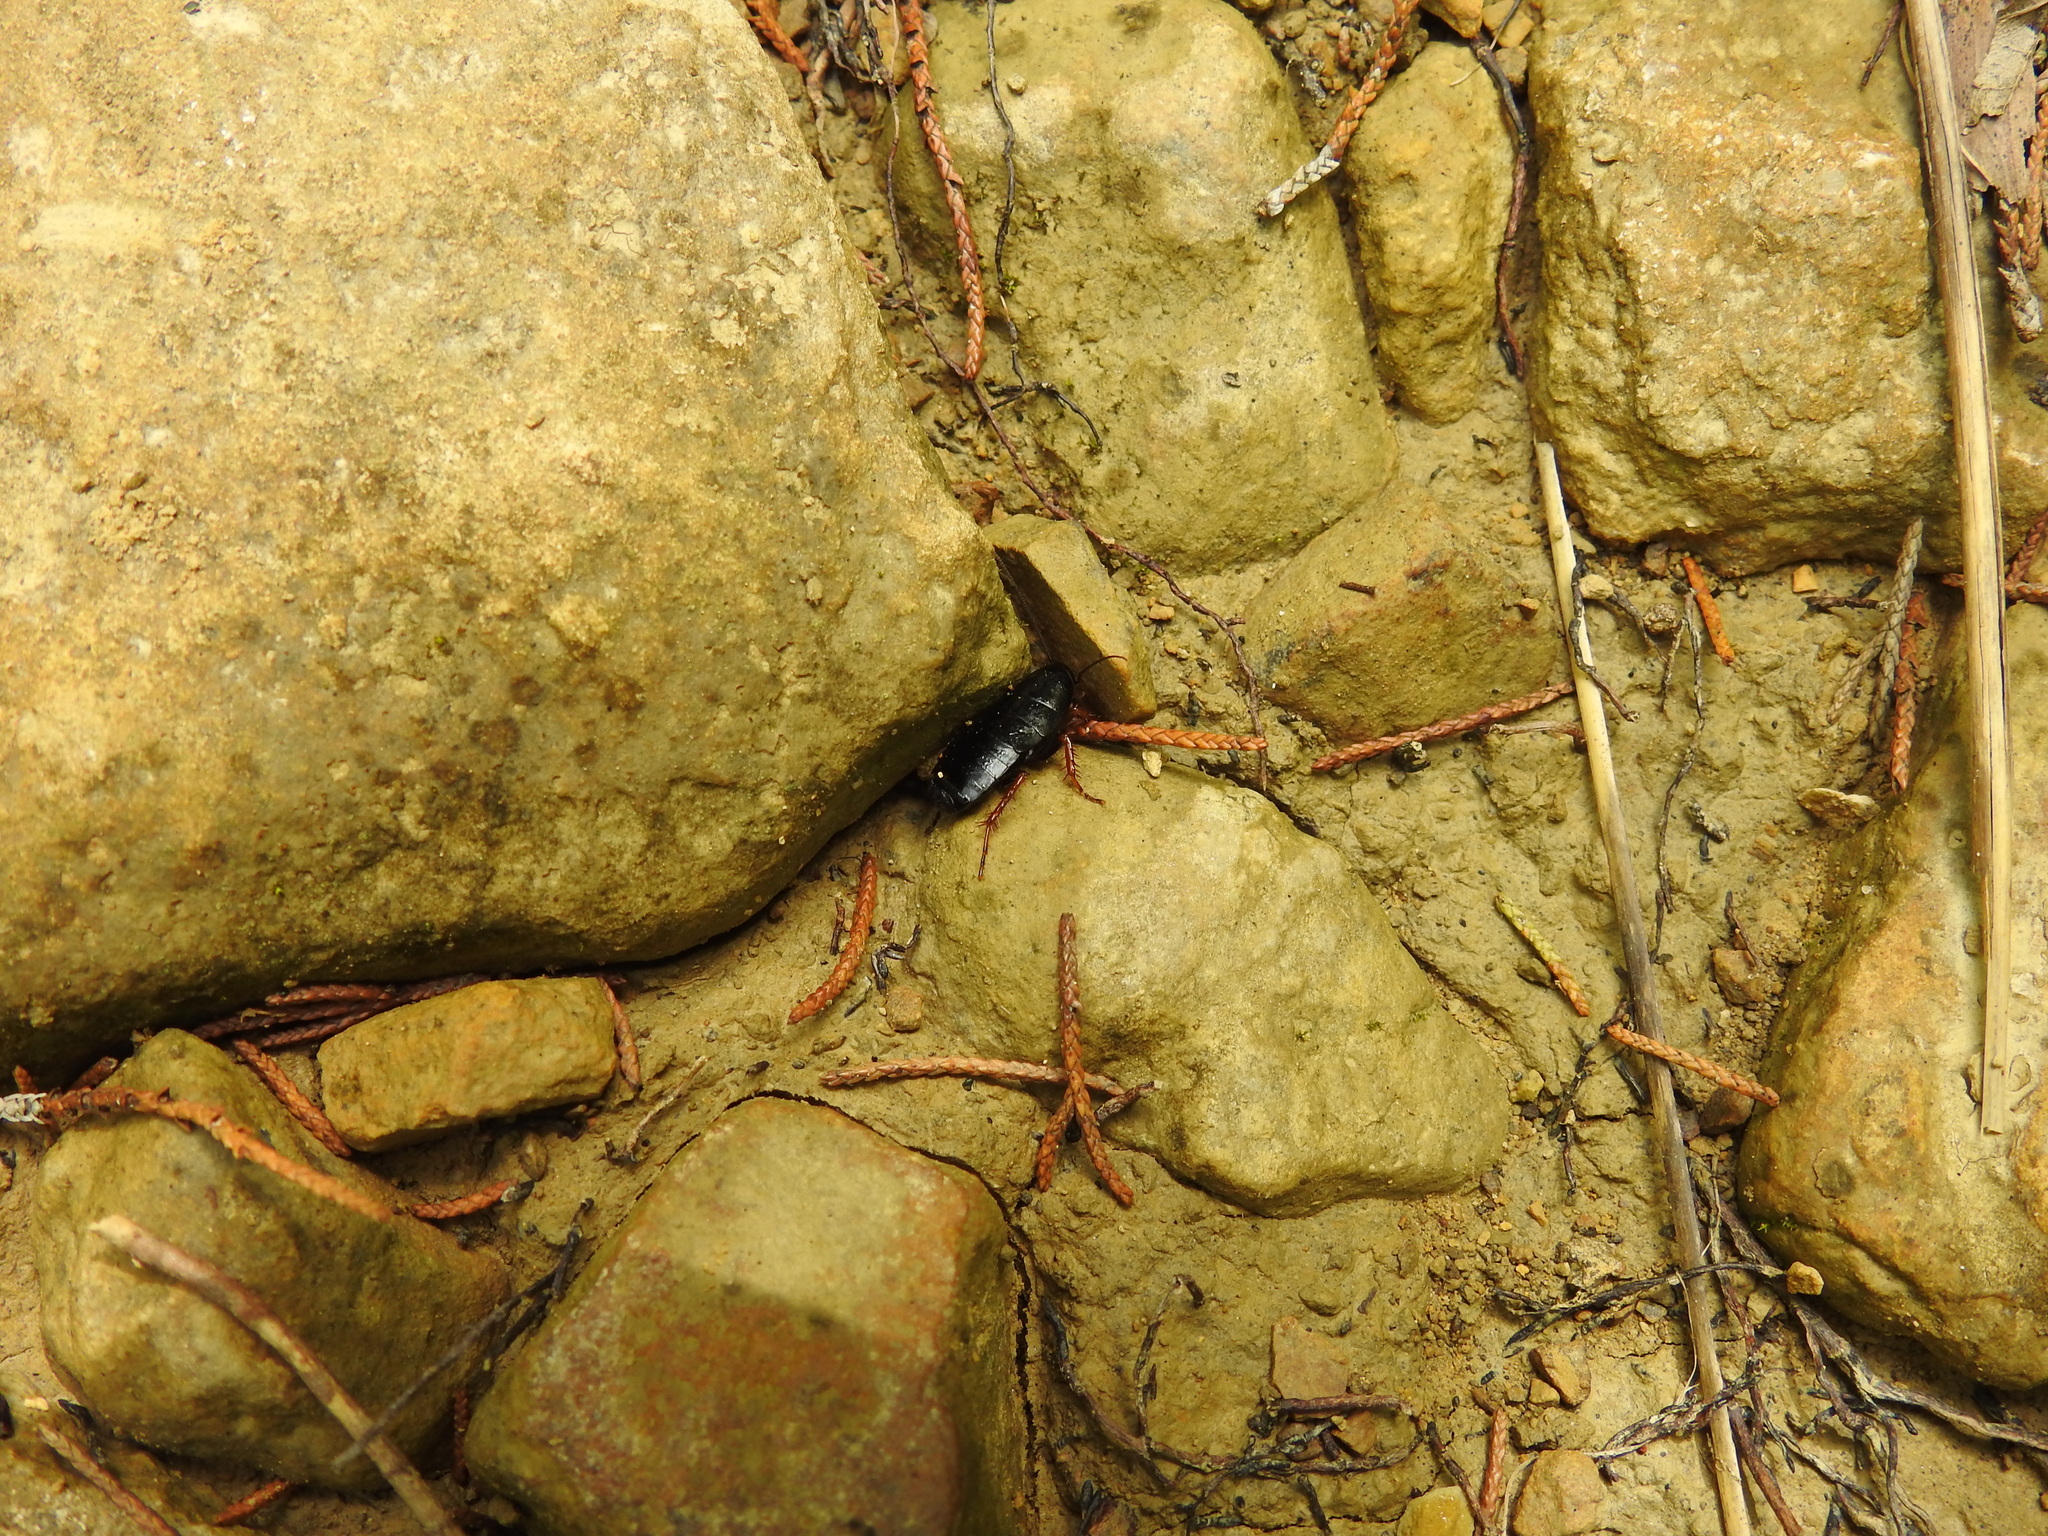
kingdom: Animalia
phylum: Arthropoda
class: Insecta
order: Blattodea
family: Ectobiidae
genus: Ischnoptera
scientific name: Ischnoptera deropeltiformis
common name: Dark wood cockroach
